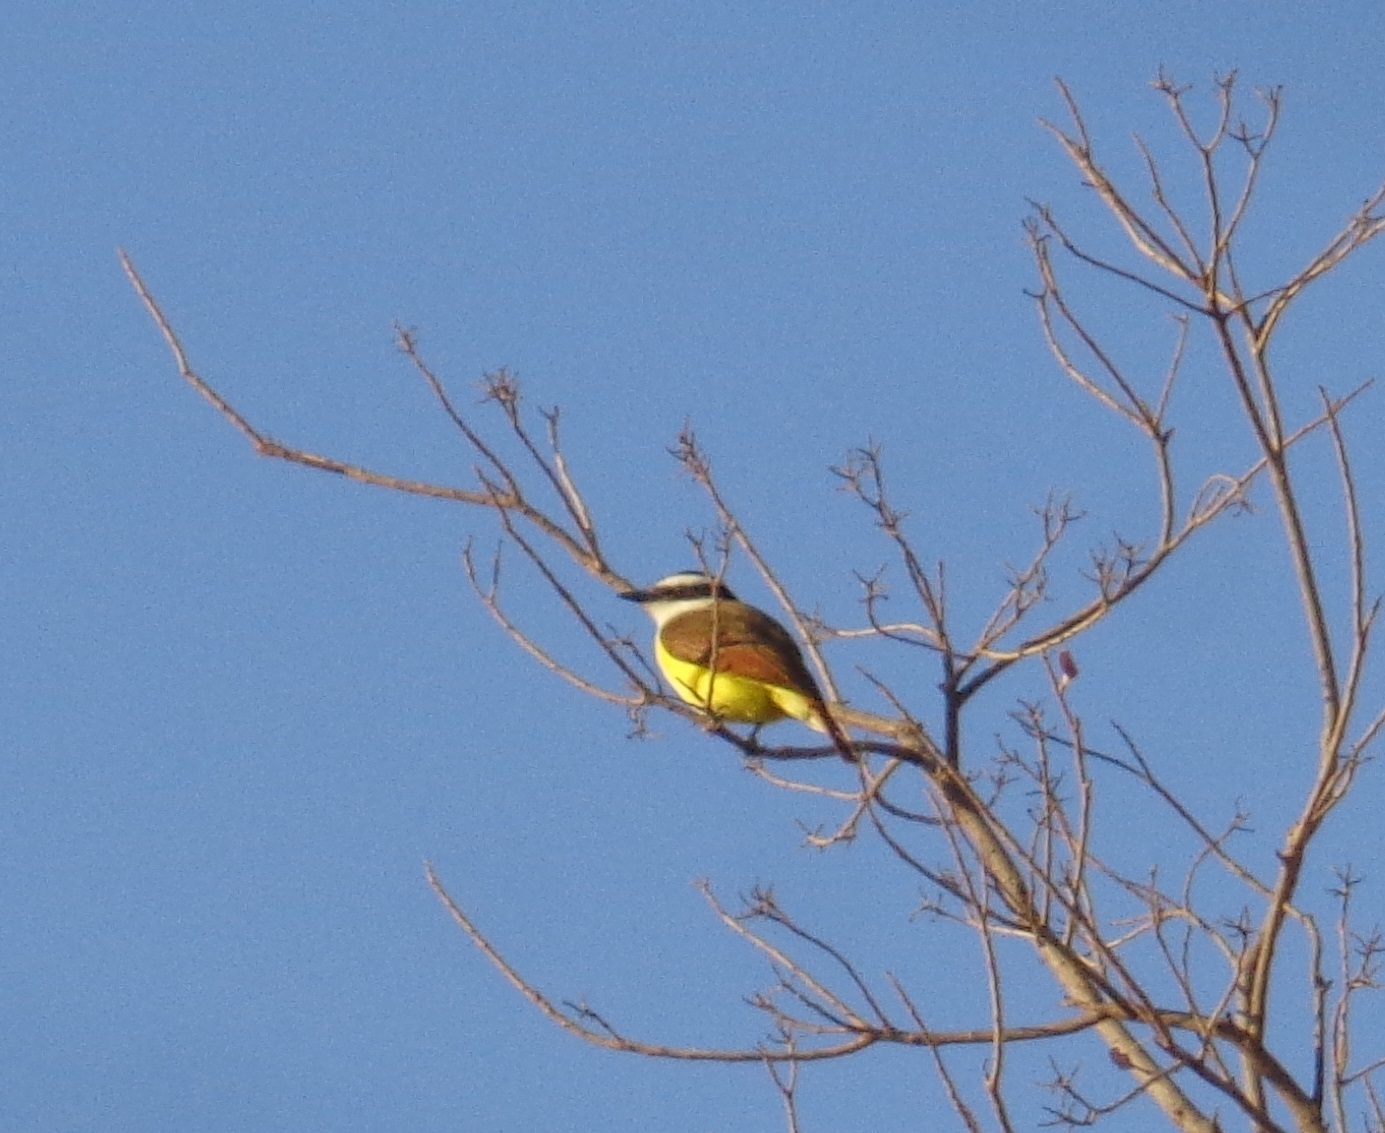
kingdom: Animalia
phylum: Chordata
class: Aves
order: Passeriformes
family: Tyrannidae
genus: Pitangus
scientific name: Pitangus sulphuratus
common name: Great kiskadee
